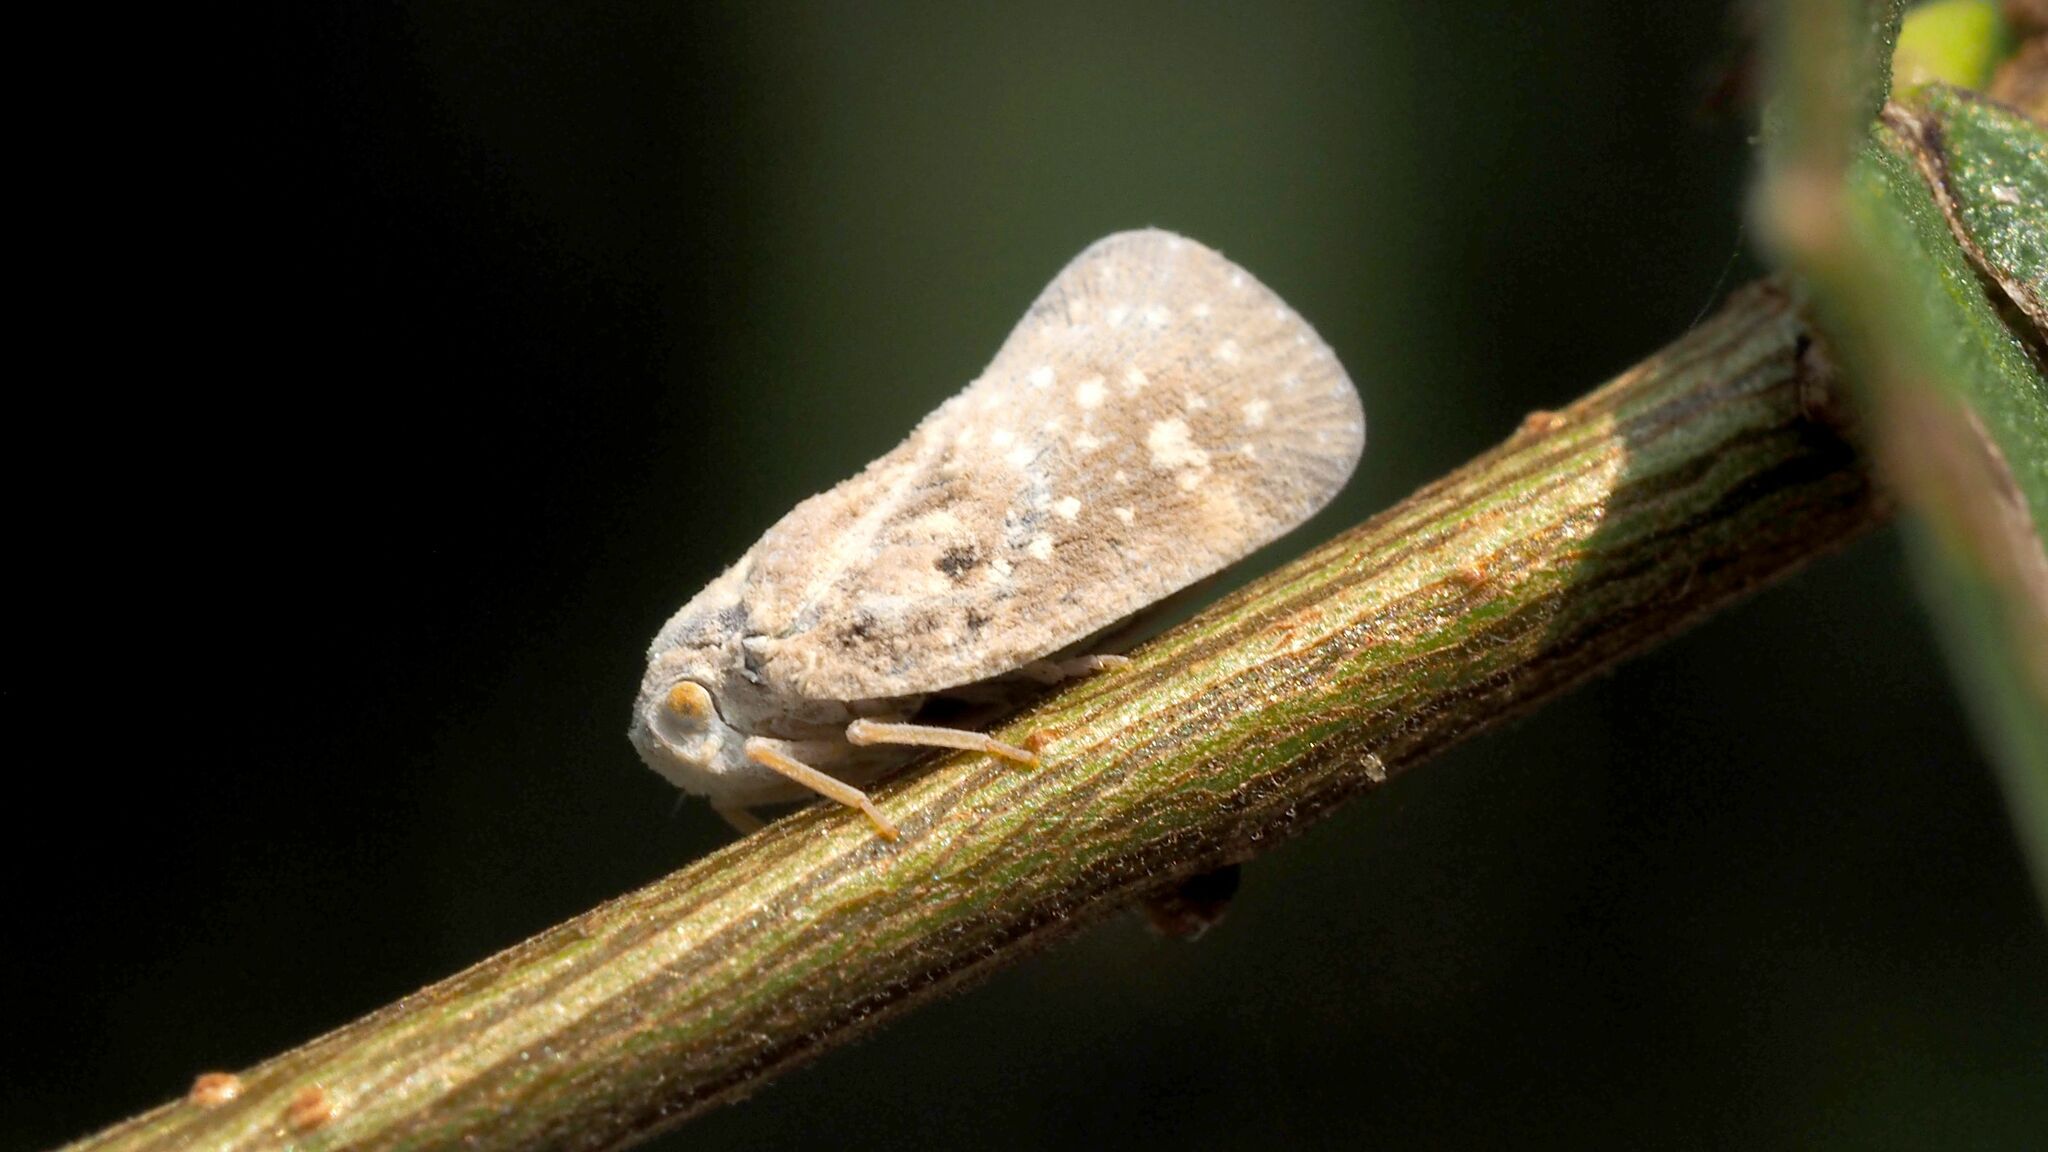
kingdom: Animalia
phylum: Arthropoda
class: Insecta
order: Hemiptera
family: Flatidae
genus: Metcalfa
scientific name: Metcalfa pruinosa
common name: Citrus flatid planthopper
